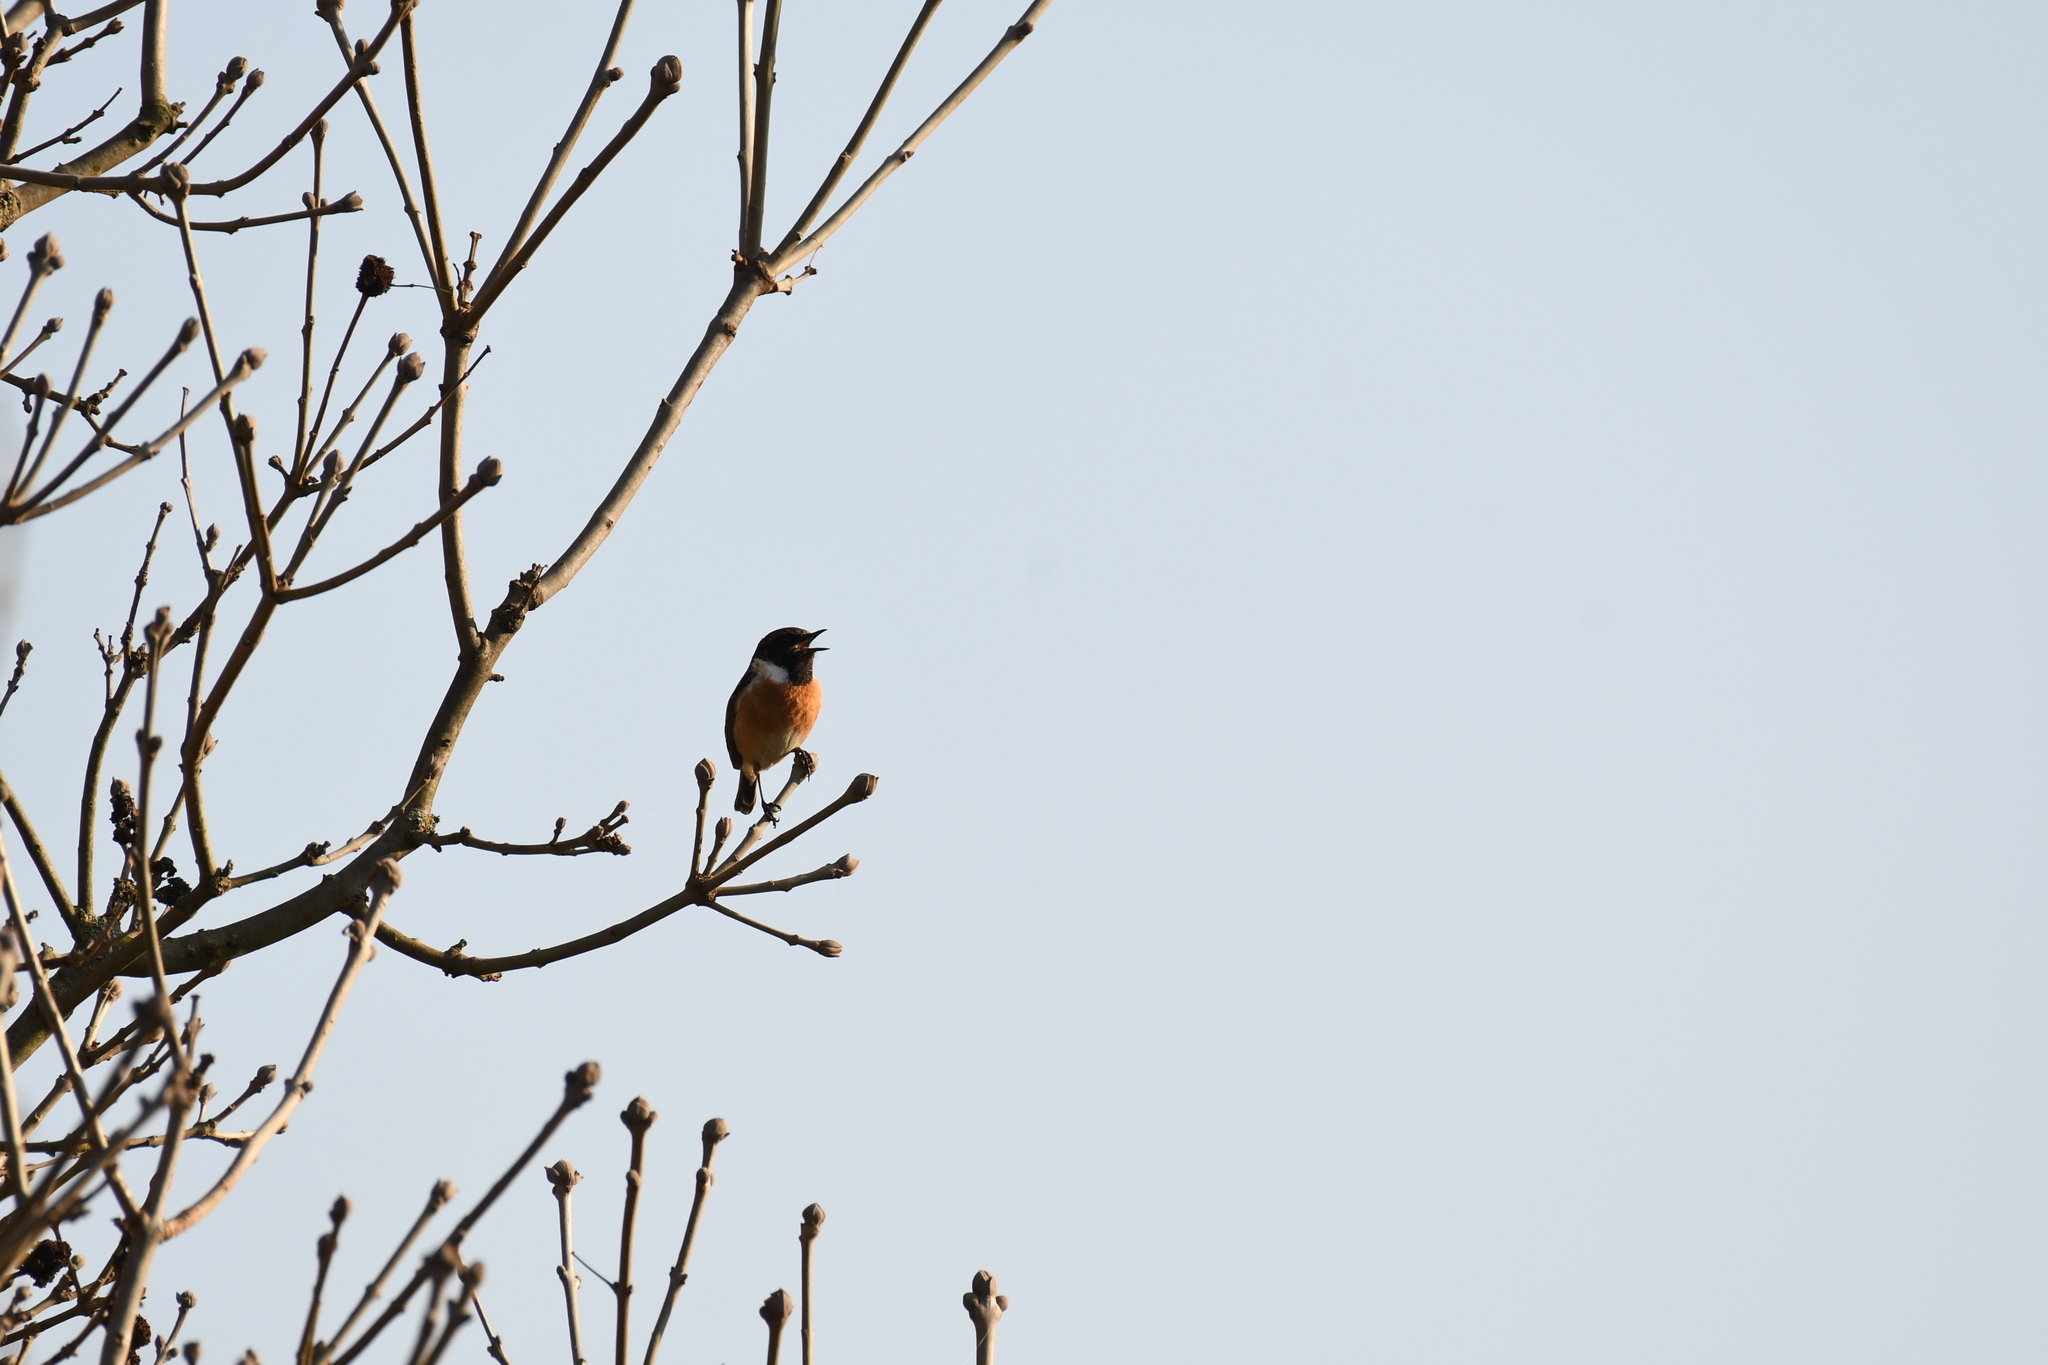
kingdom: Animalia
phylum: Chordata
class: Aves
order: Passeriformes
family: Muscicapidae
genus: Saxicola
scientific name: Saxicola rubicola
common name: European stonechat
